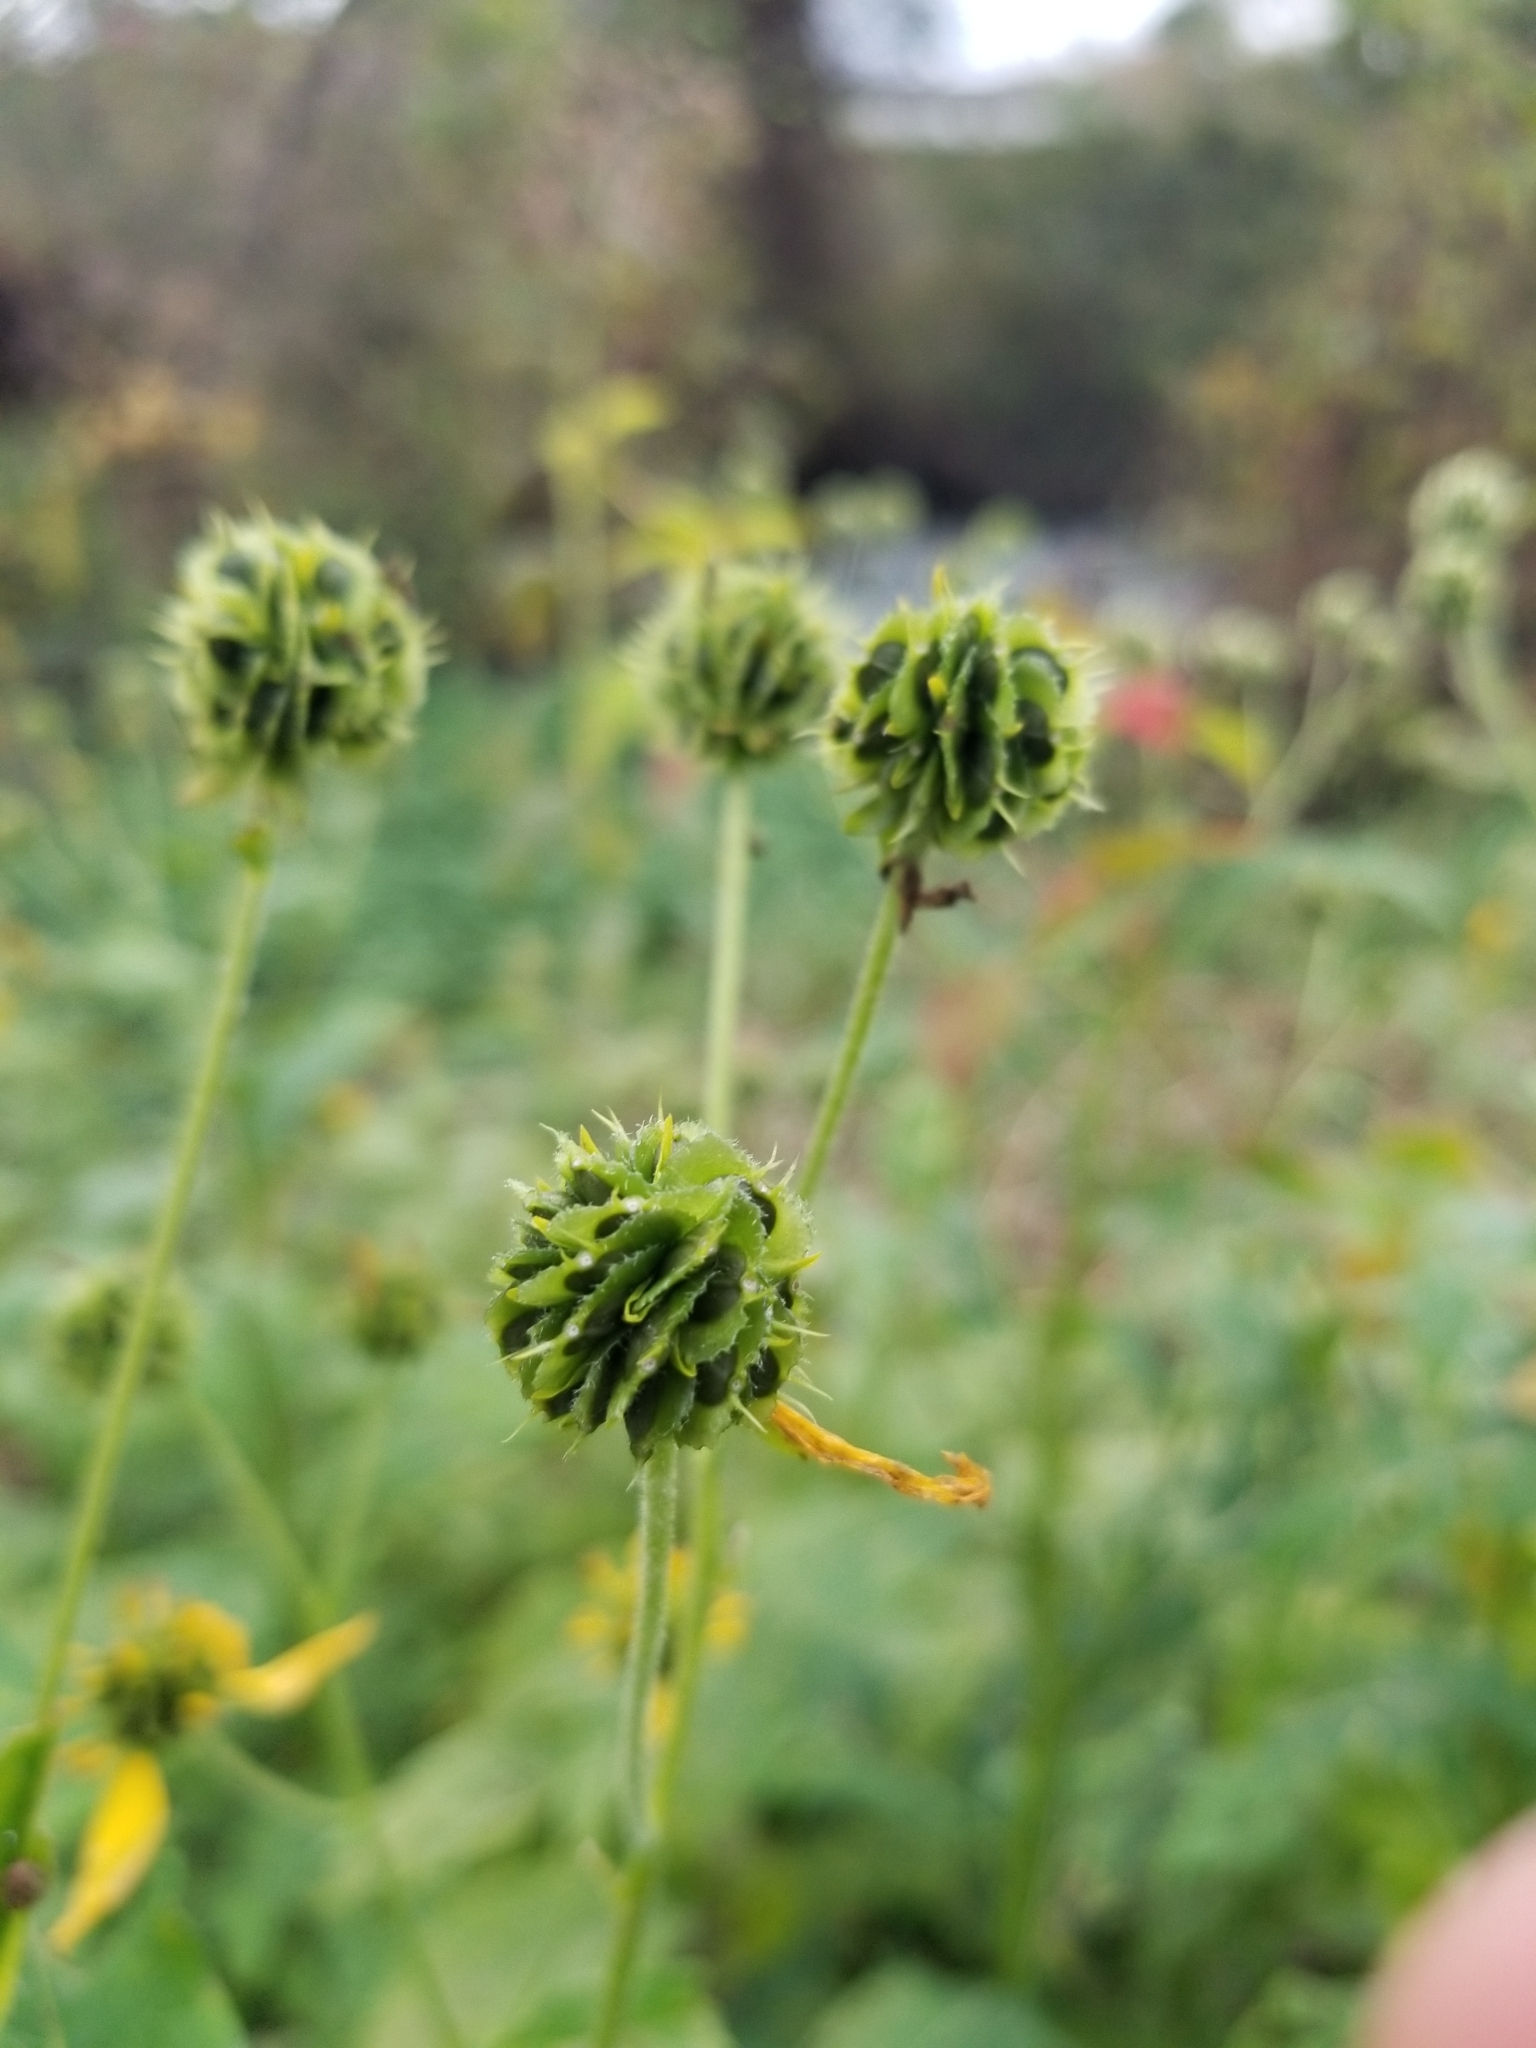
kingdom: Plantae
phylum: Tracheophyta
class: Magnoliopsida
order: Asterales
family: Asteraceae
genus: Verbesina
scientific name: Verbesina alternifolia
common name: Wingstem
